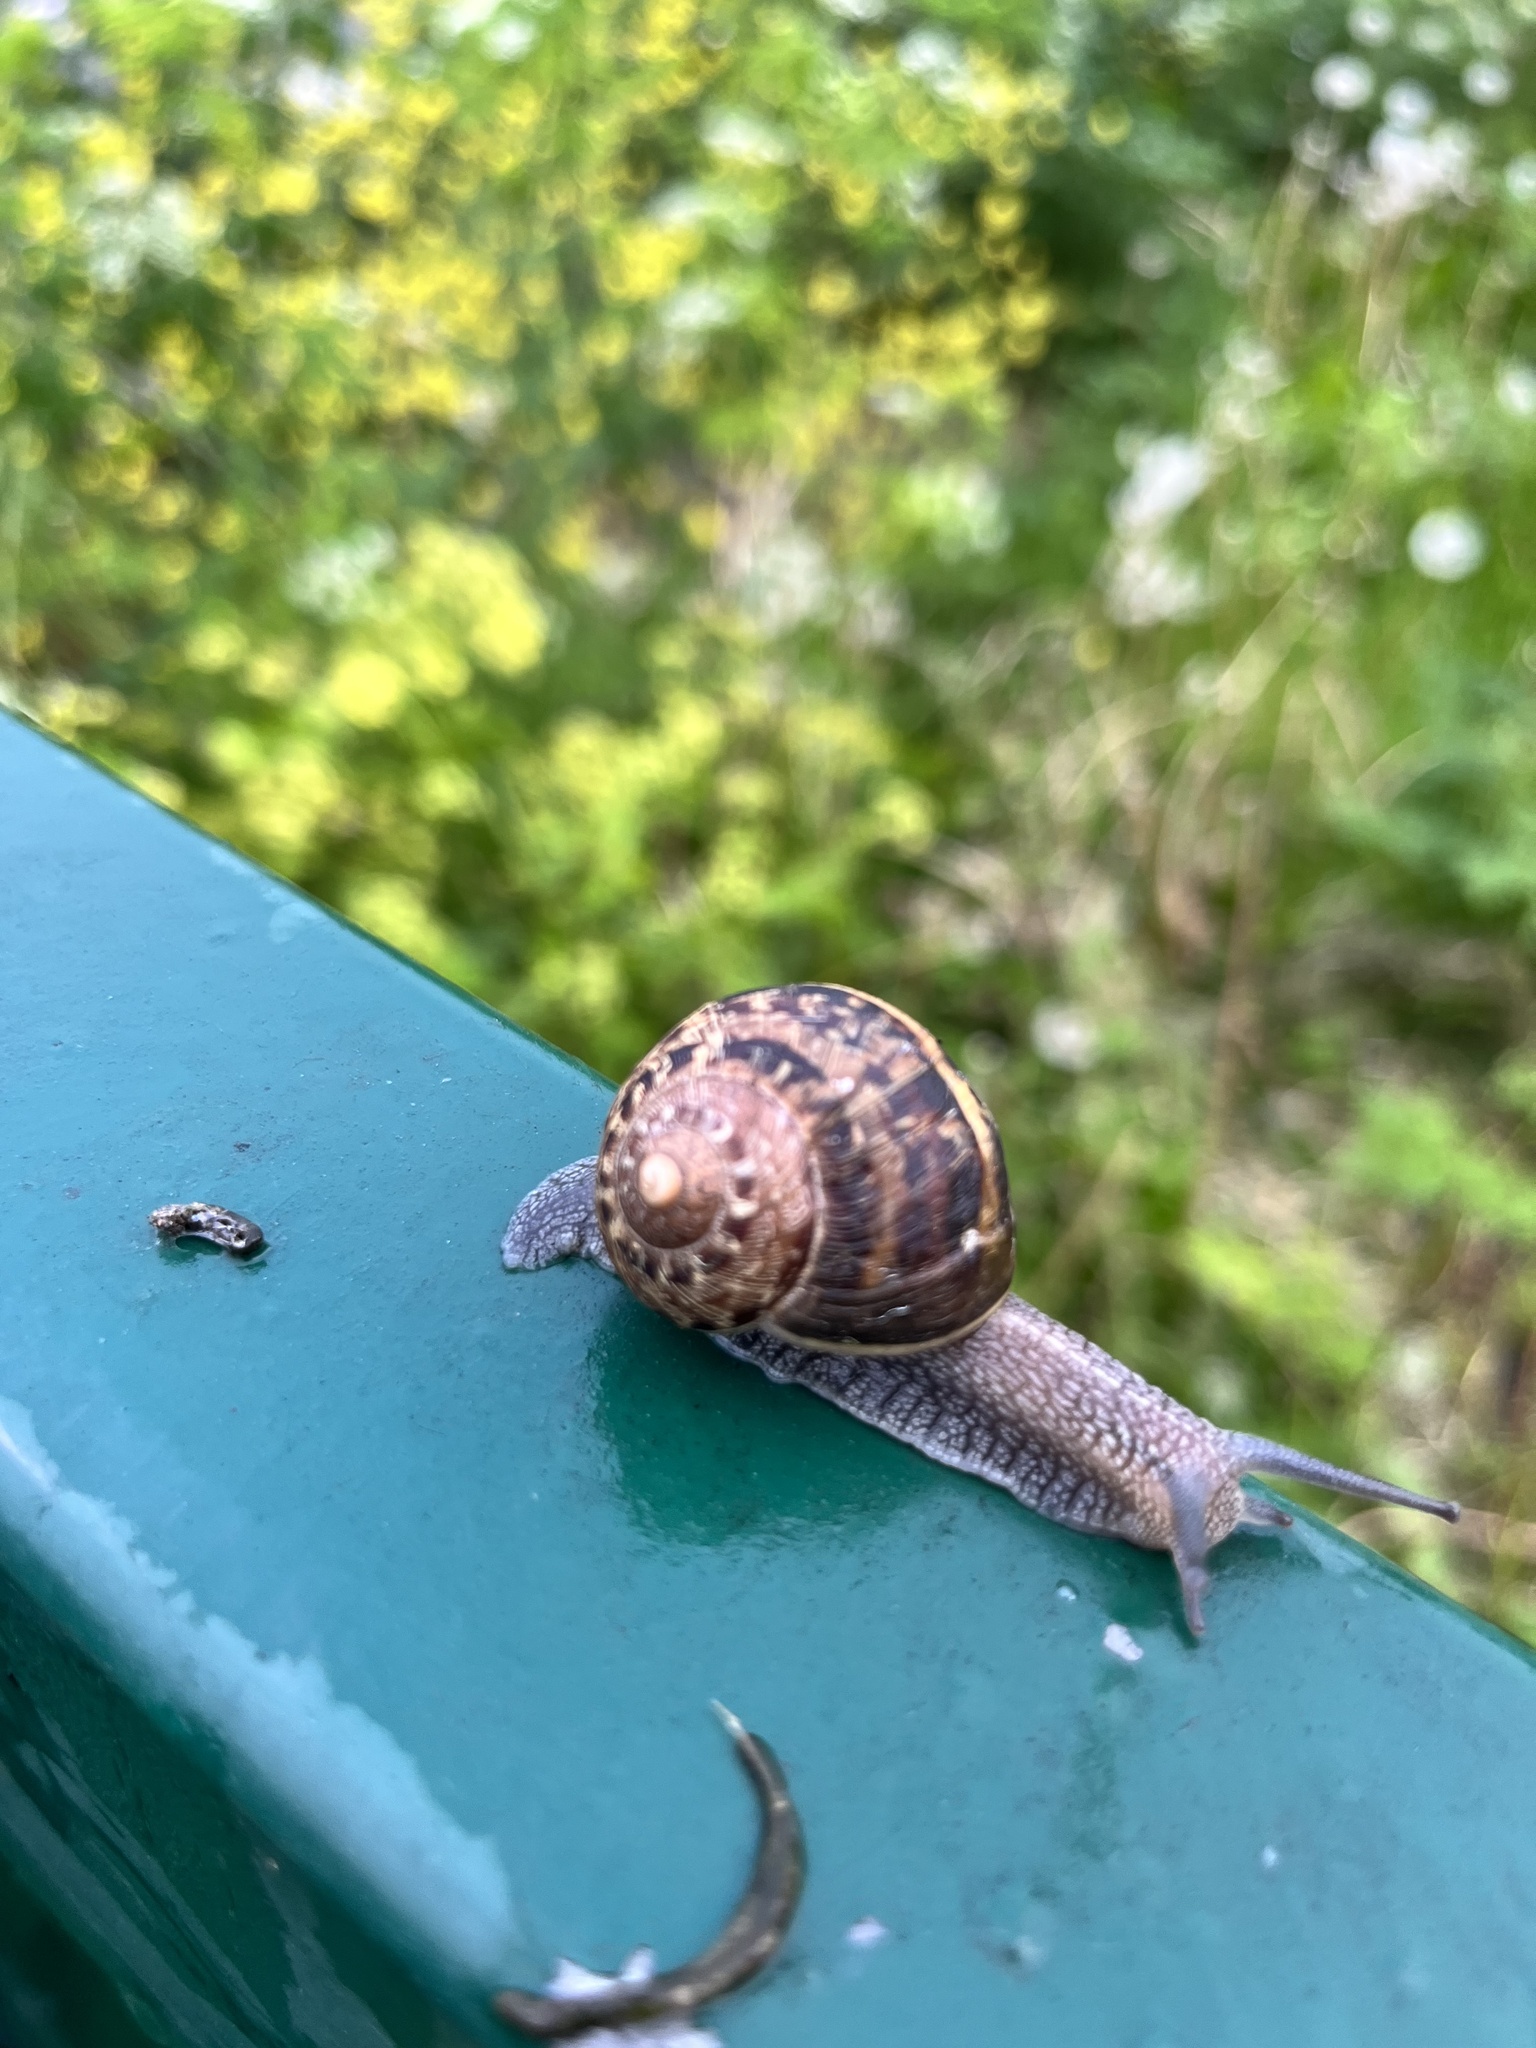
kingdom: Animalia
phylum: Mollusca
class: Gastropoda
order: Stylommatophora
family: Helicidae
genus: Cornu
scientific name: Cornu aspersum
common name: Brown garden snail
